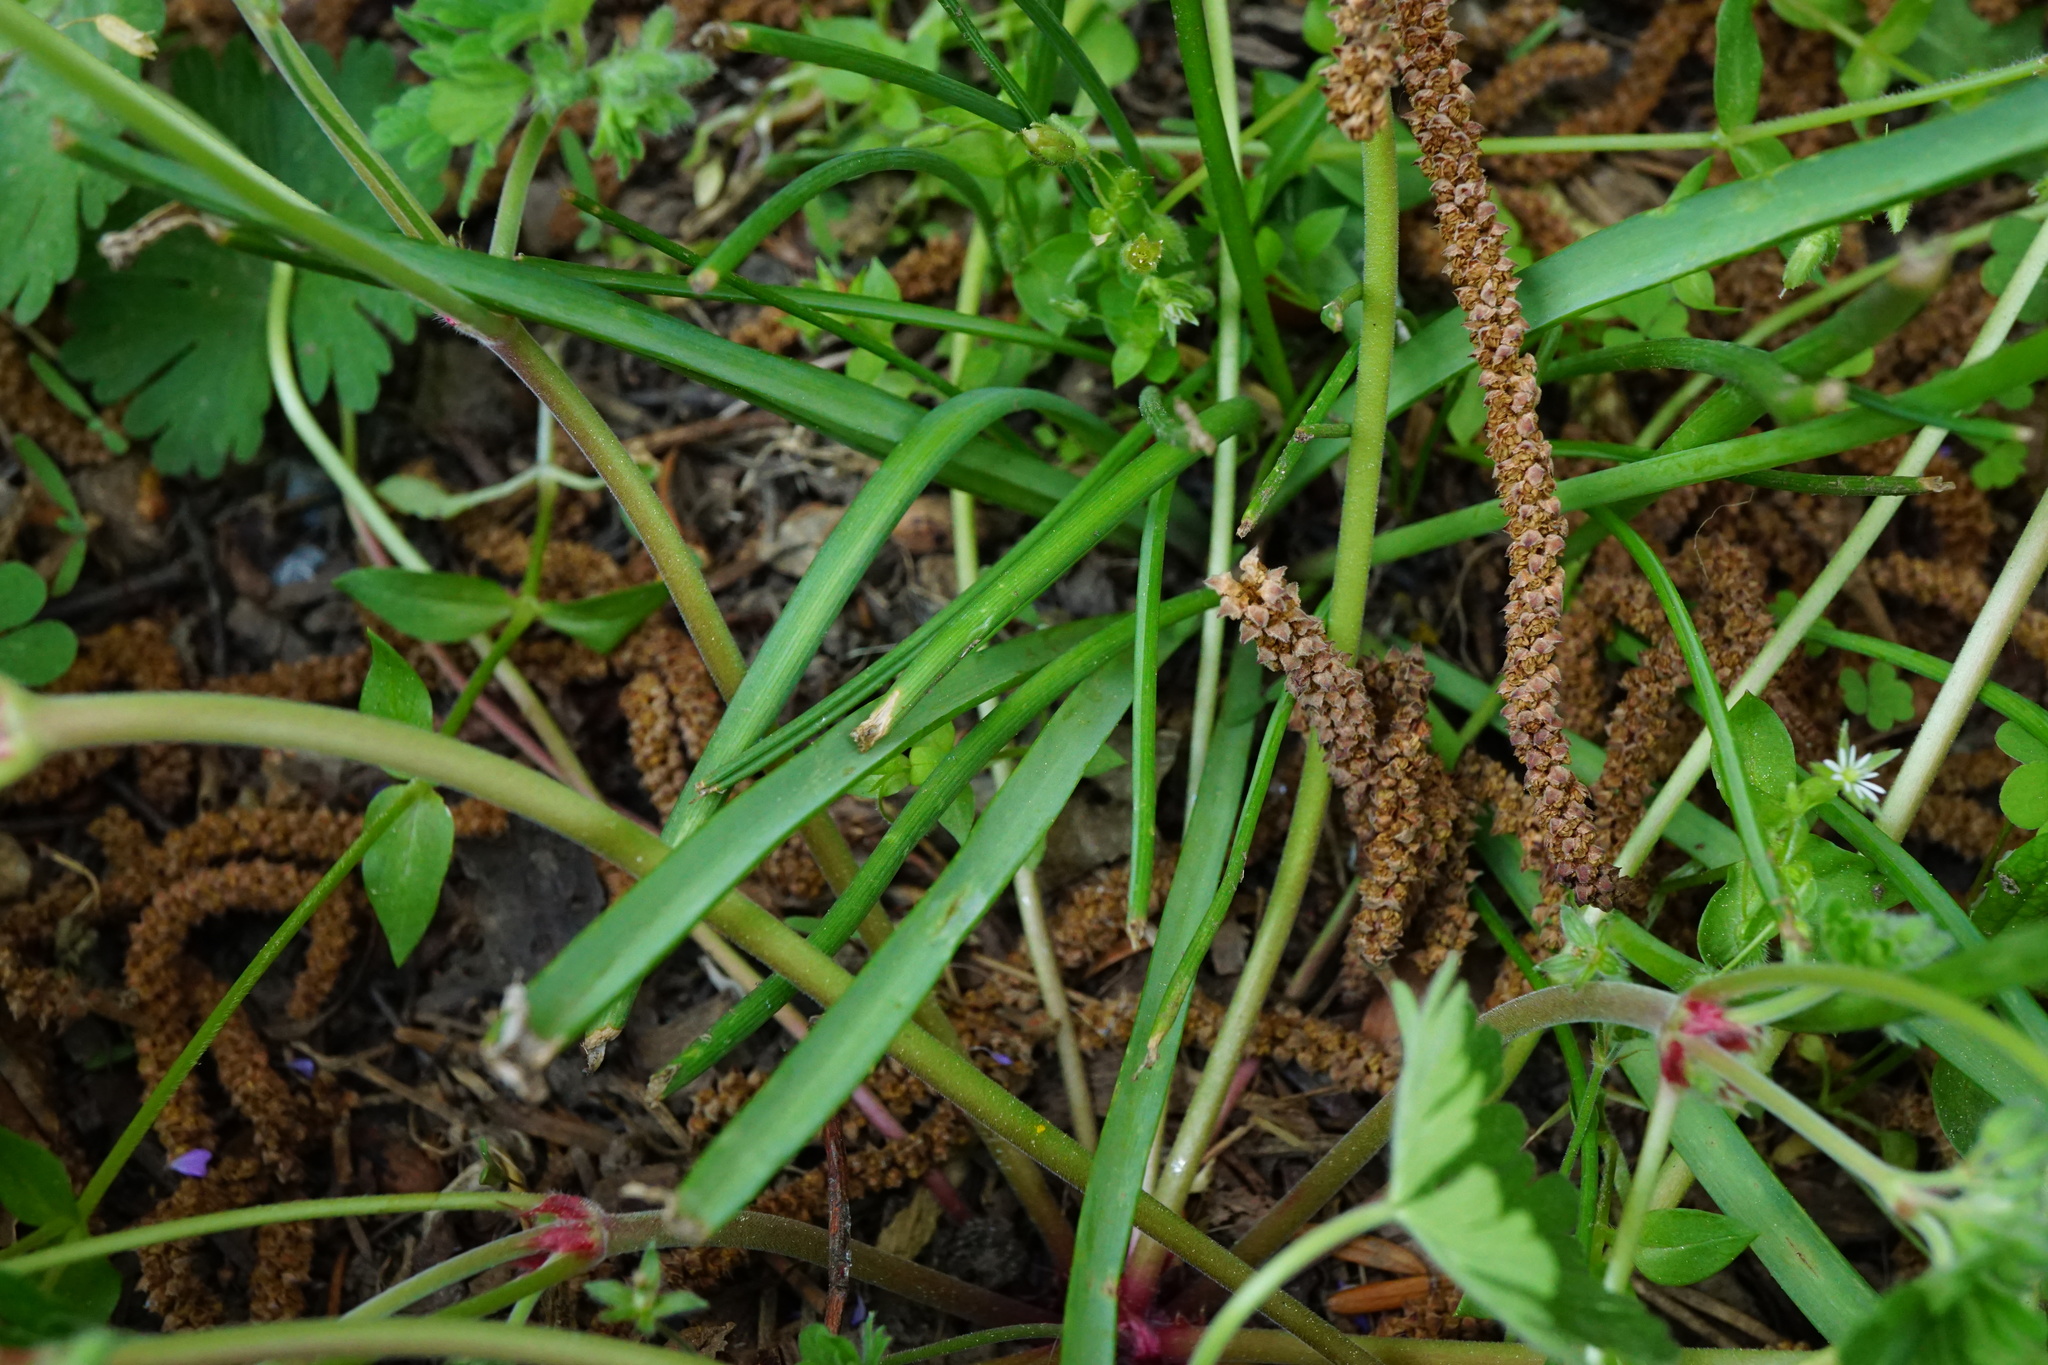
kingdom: Plantae
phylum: Tracheophyta
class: Liliopsida
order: Asparagales
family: Asparagaceae
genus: Muscari
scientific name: Muscari armeniacum
